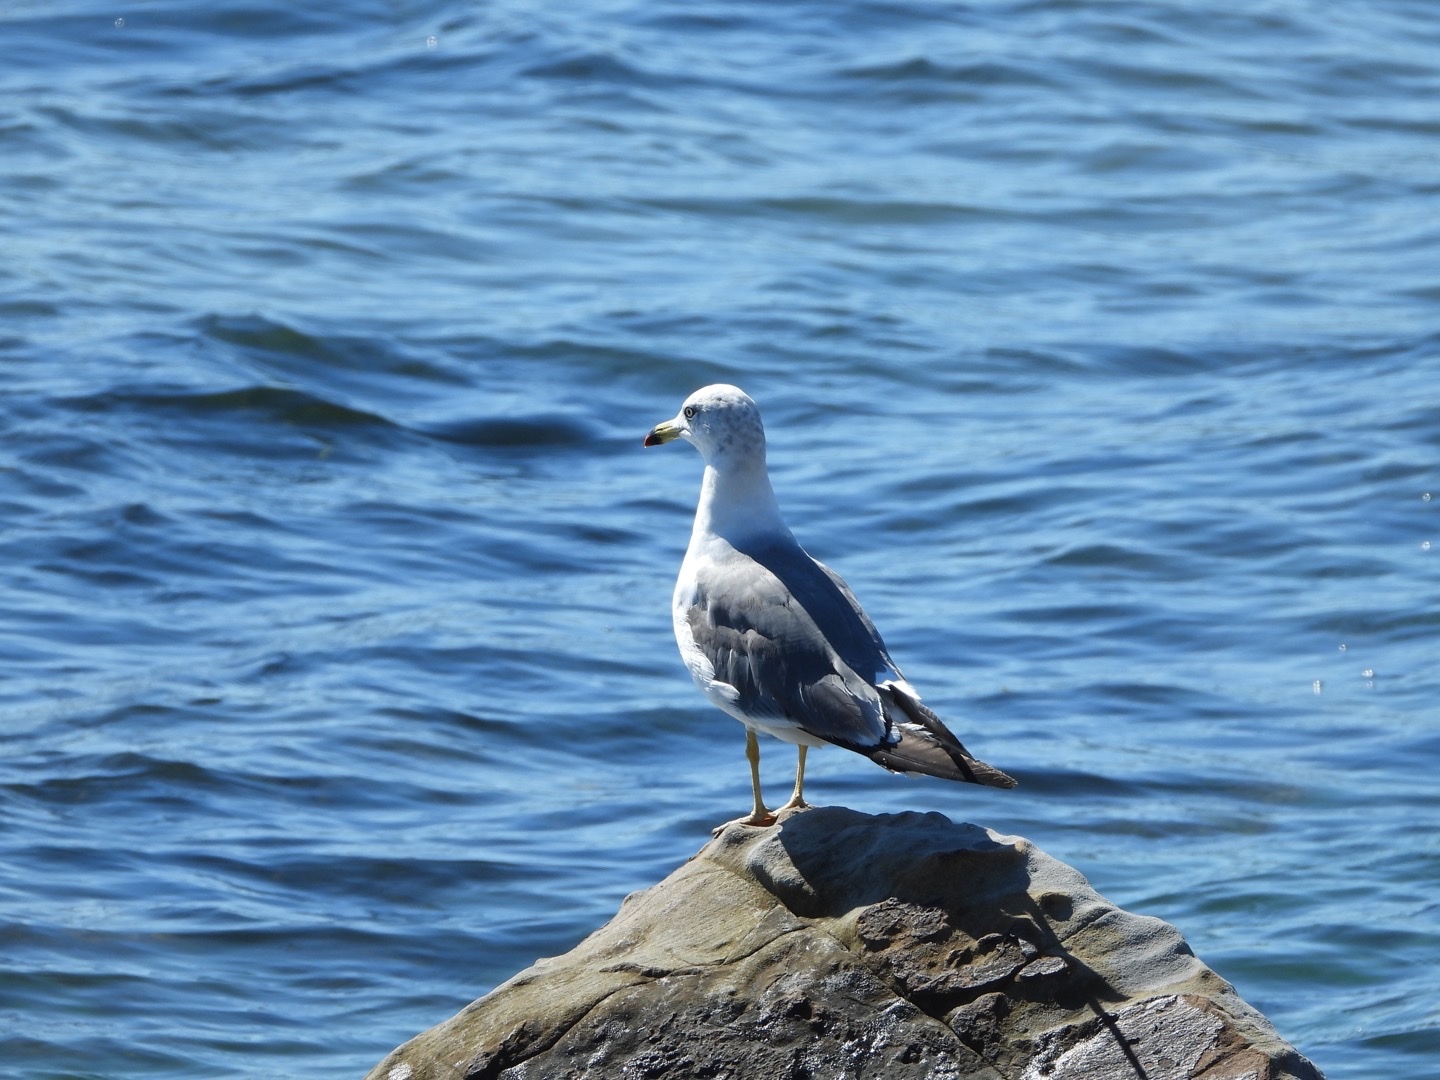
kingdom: Animalia
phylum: Chordata
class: Aves
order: Charadriiformes
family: Laridae
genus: Larus
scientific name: Larus crassirostris
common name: Black-tailed gull
